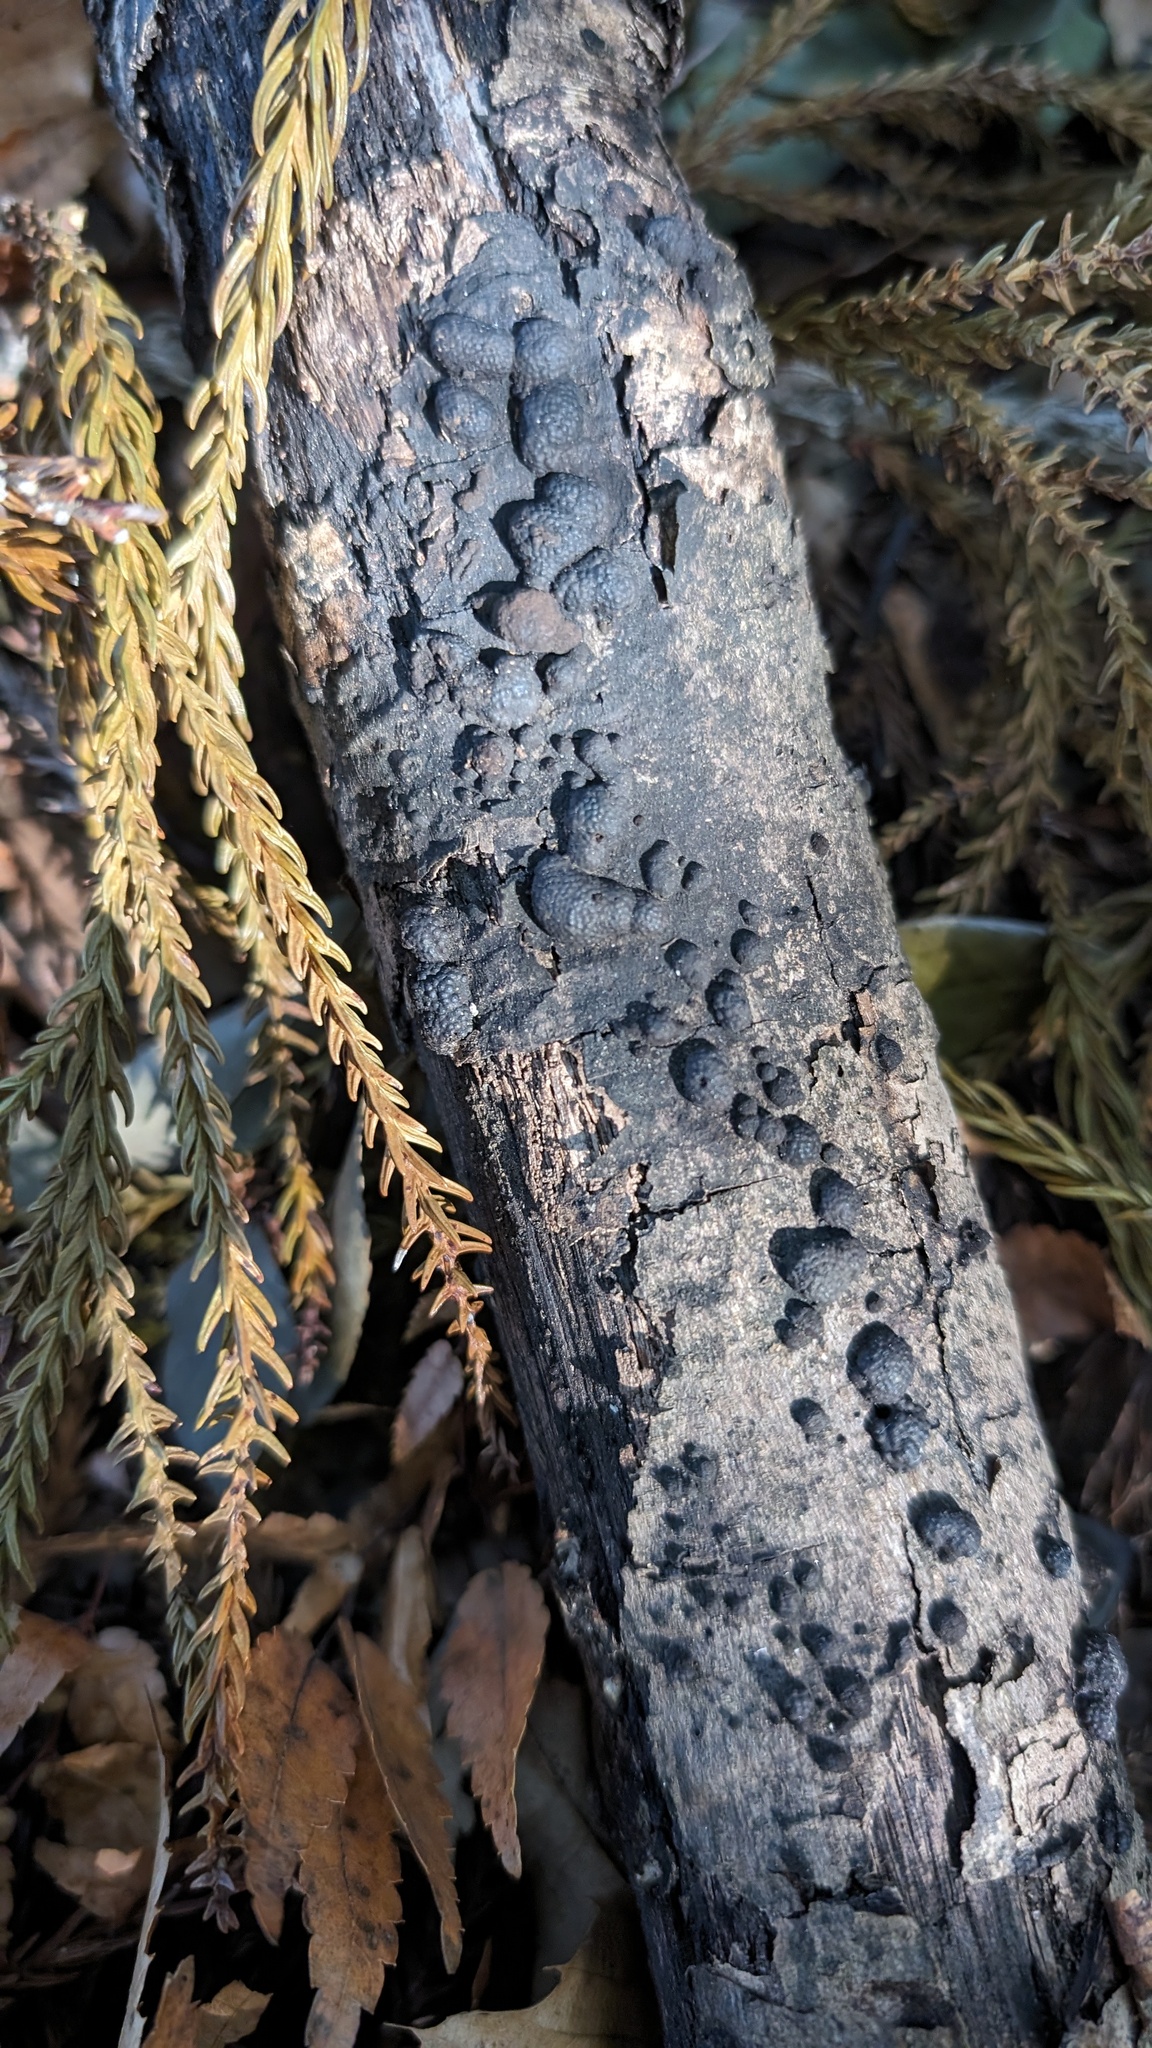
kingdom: Fungi
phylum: Ascomycota
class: Sordariomycetes
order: Xylariales
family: Hypoxylaceae
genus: Annulohypoxylon
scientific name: Annulohypoxylon truncatum
